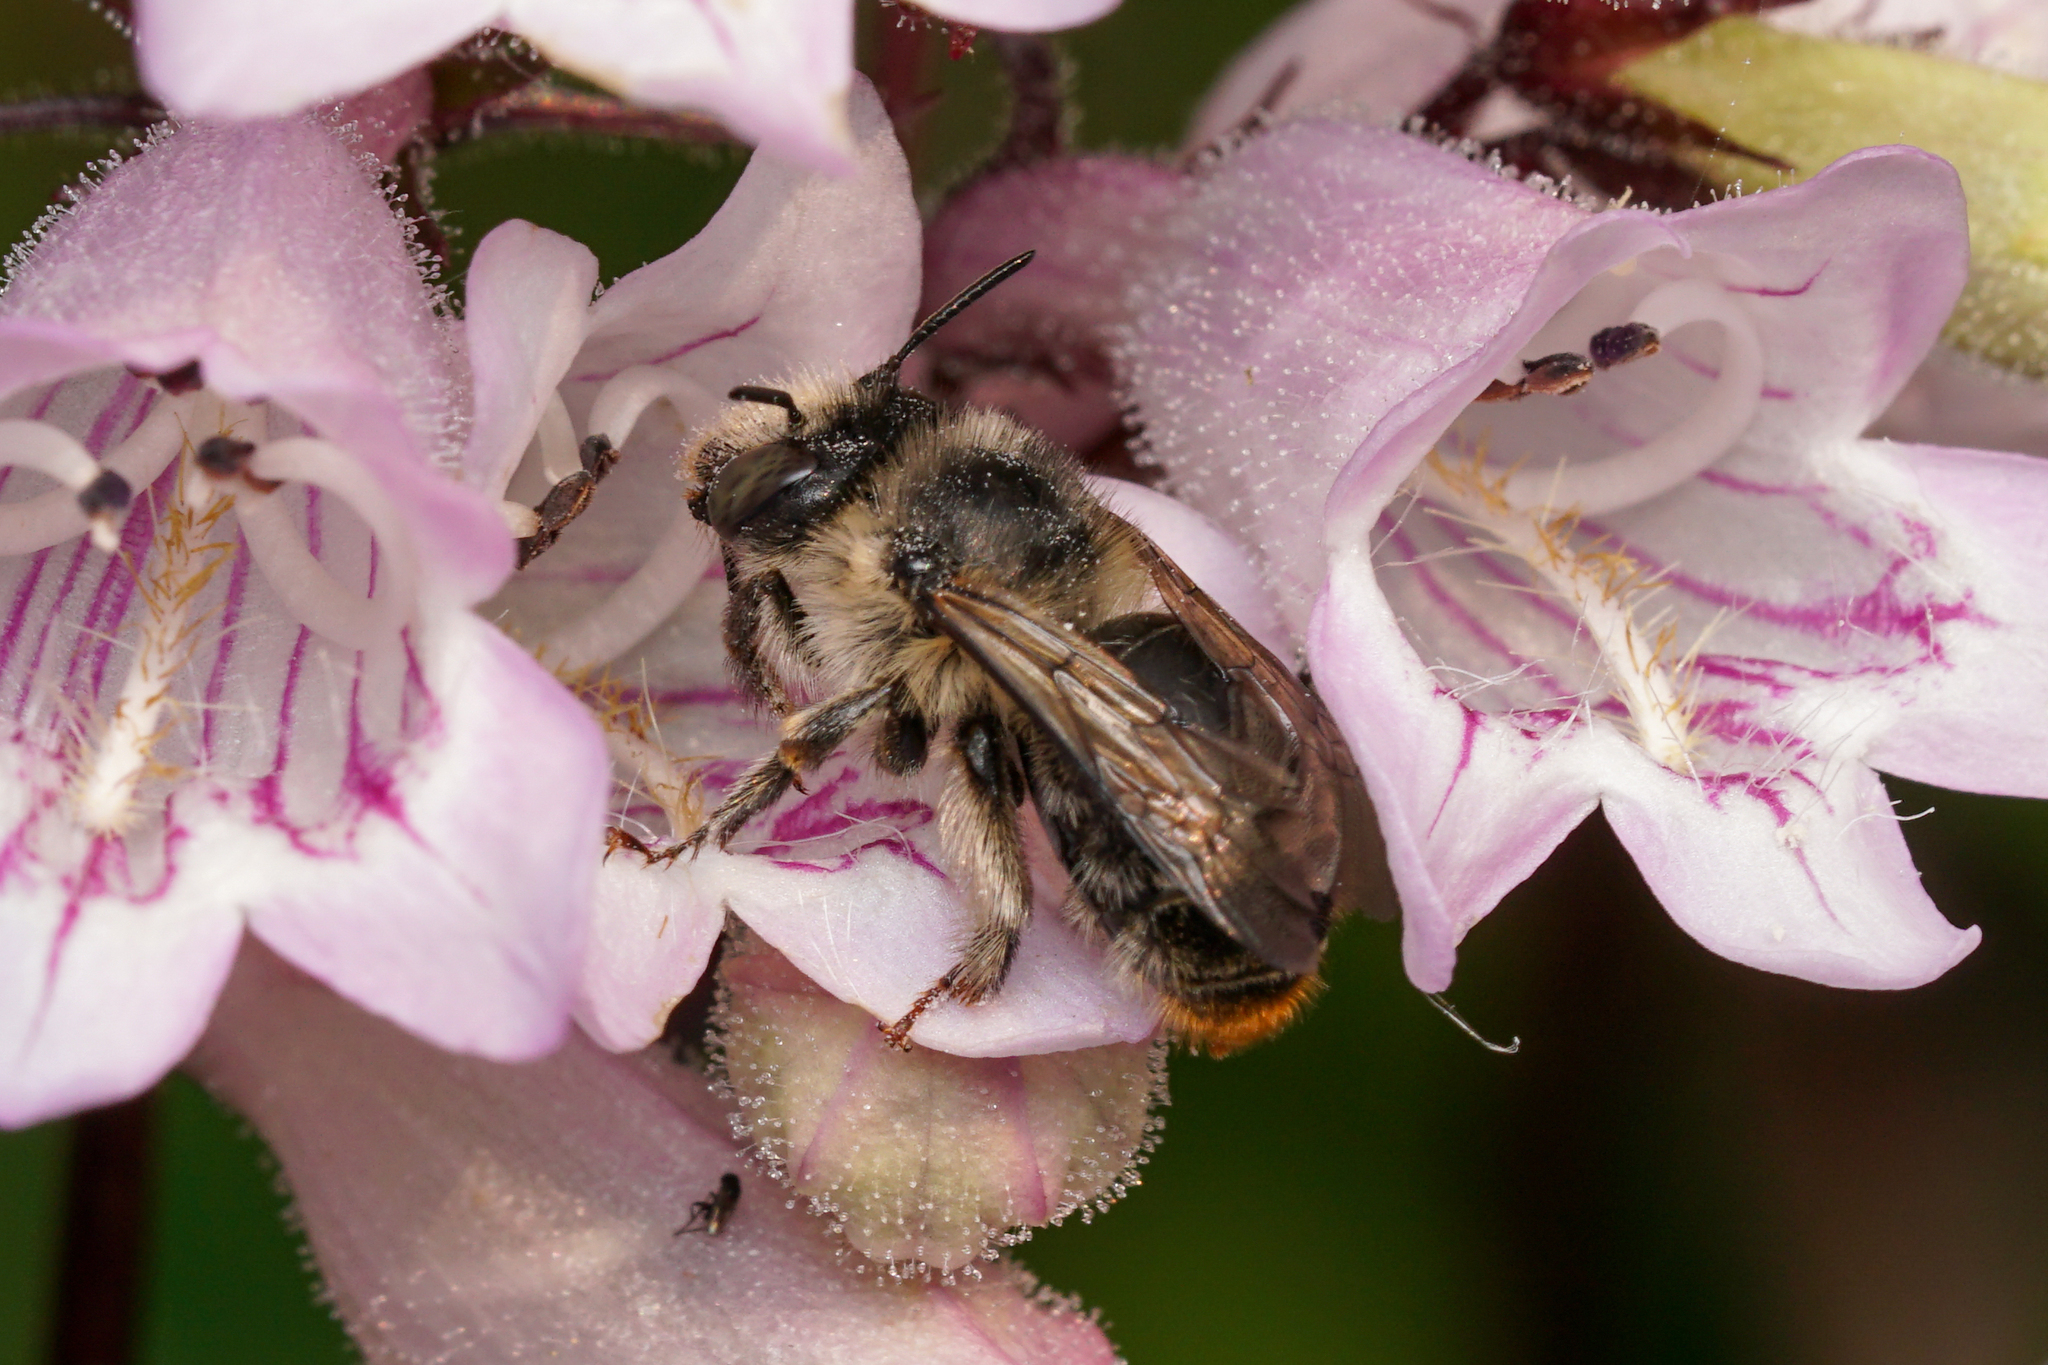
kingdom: Animalia
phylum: Arthropoda
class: Insecta
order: Hymenoptera
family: Apidae
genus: Anthophora
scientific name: Anthophora terminalis
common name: Orange-tipped wood-digger bee
